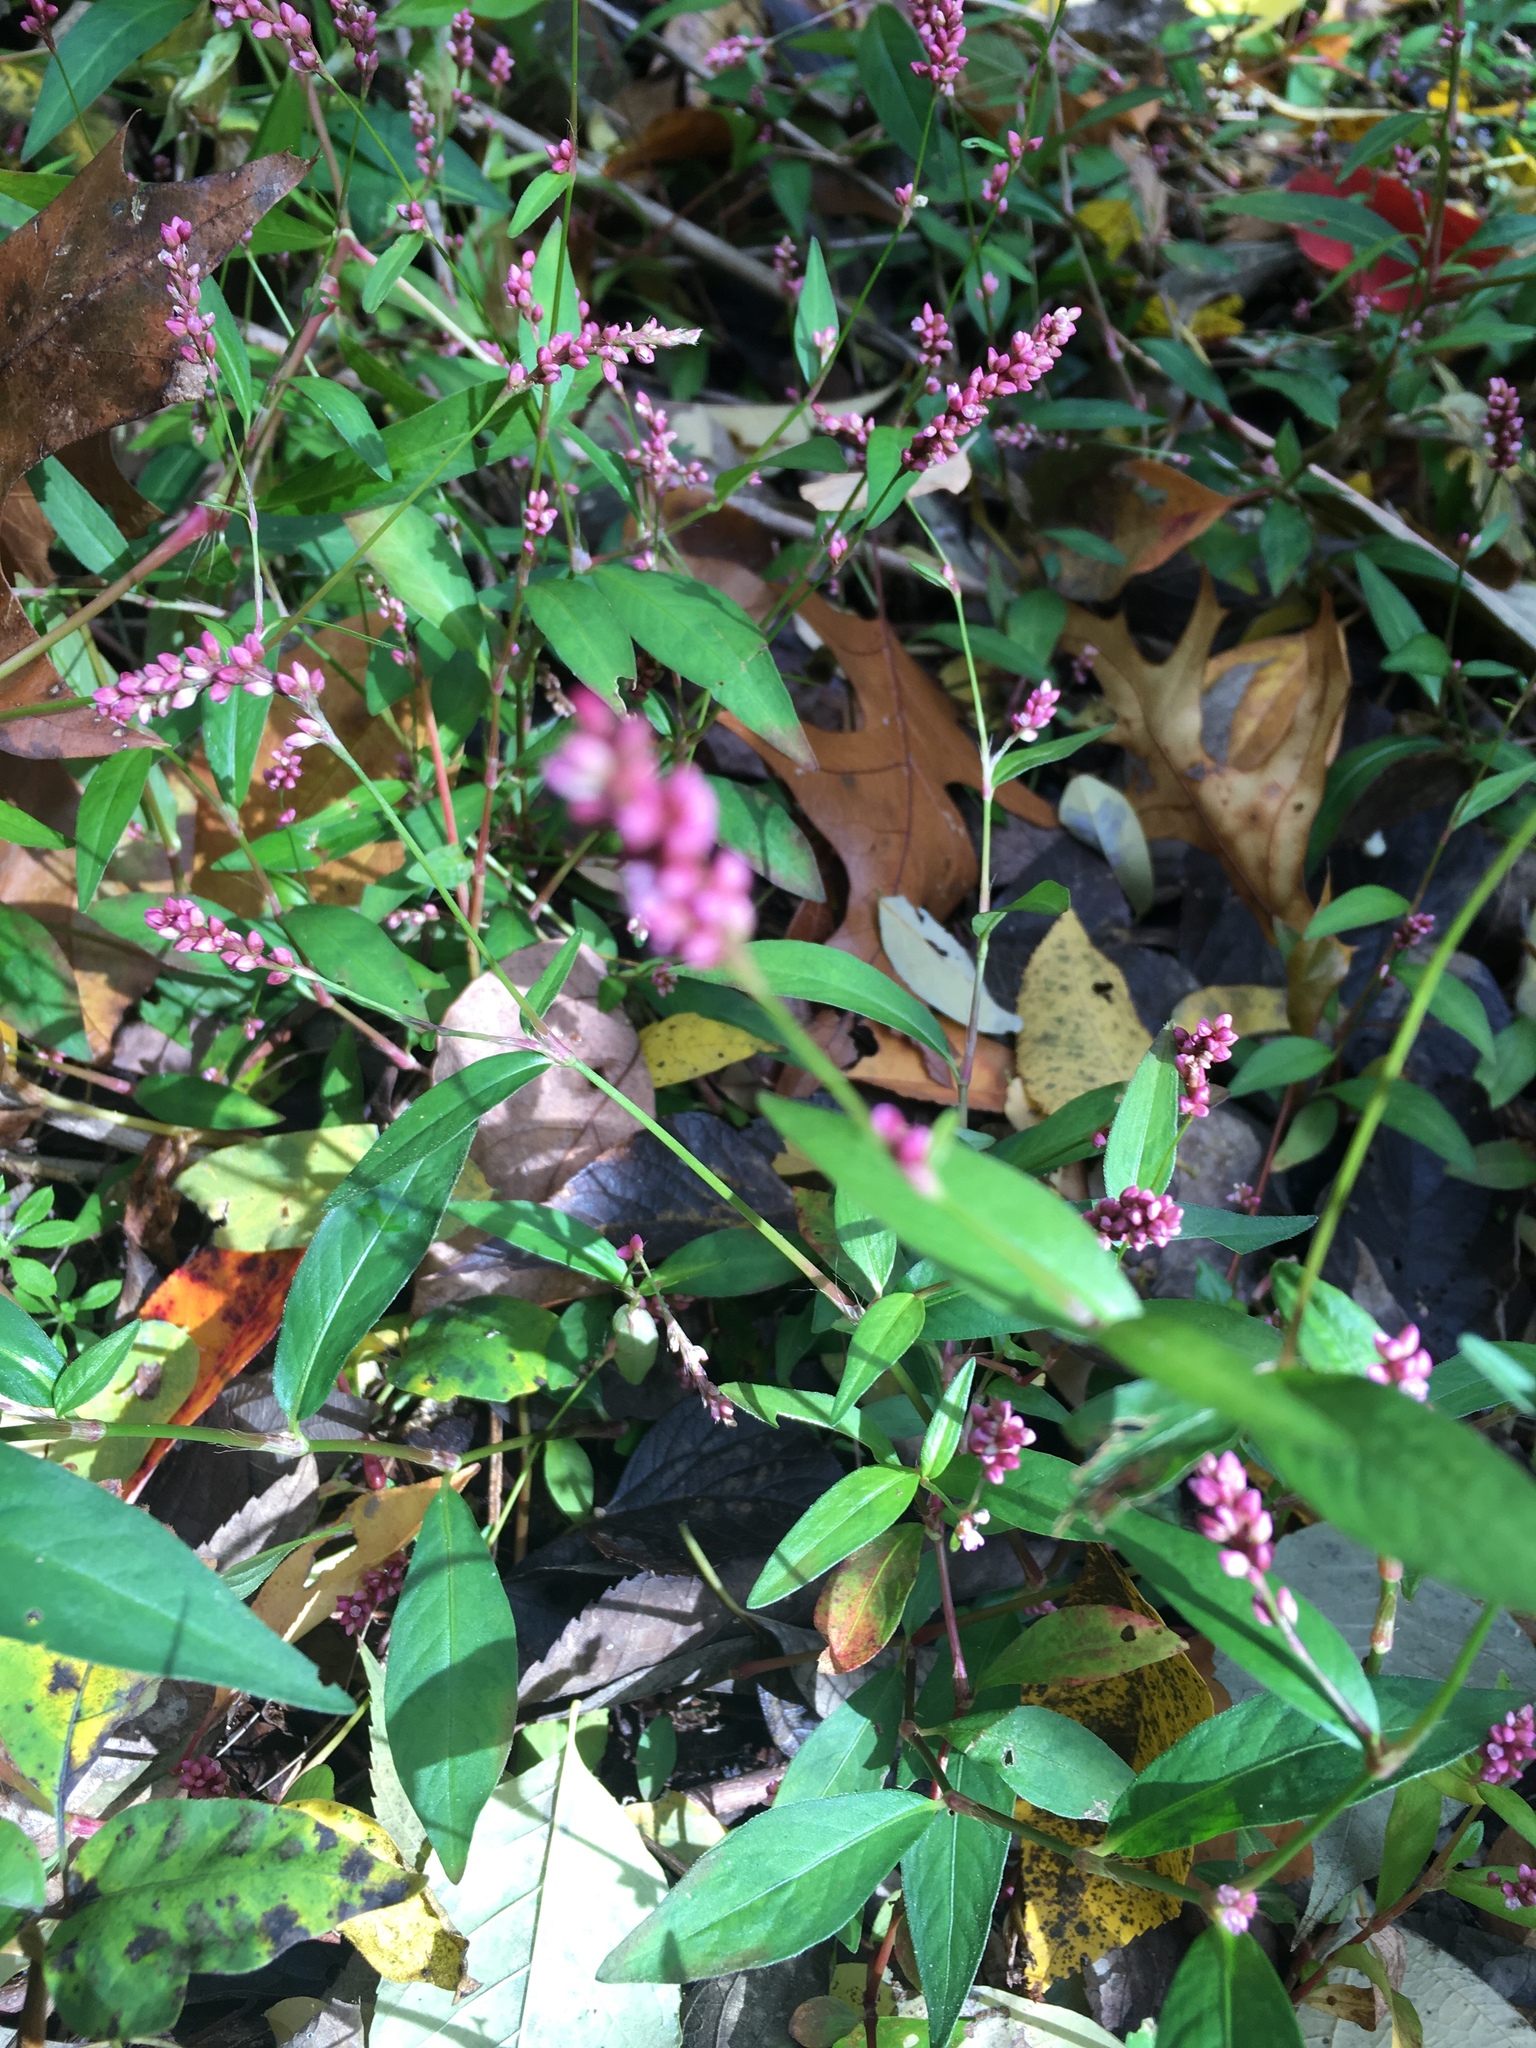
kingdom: Plantae
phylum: Tracheophyta
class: Magnoliopsida
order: Caryophyllales
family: Polygonaceae
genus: Persicaria
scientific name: Persicaria longiseta
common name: Bristly lady's-thumb
